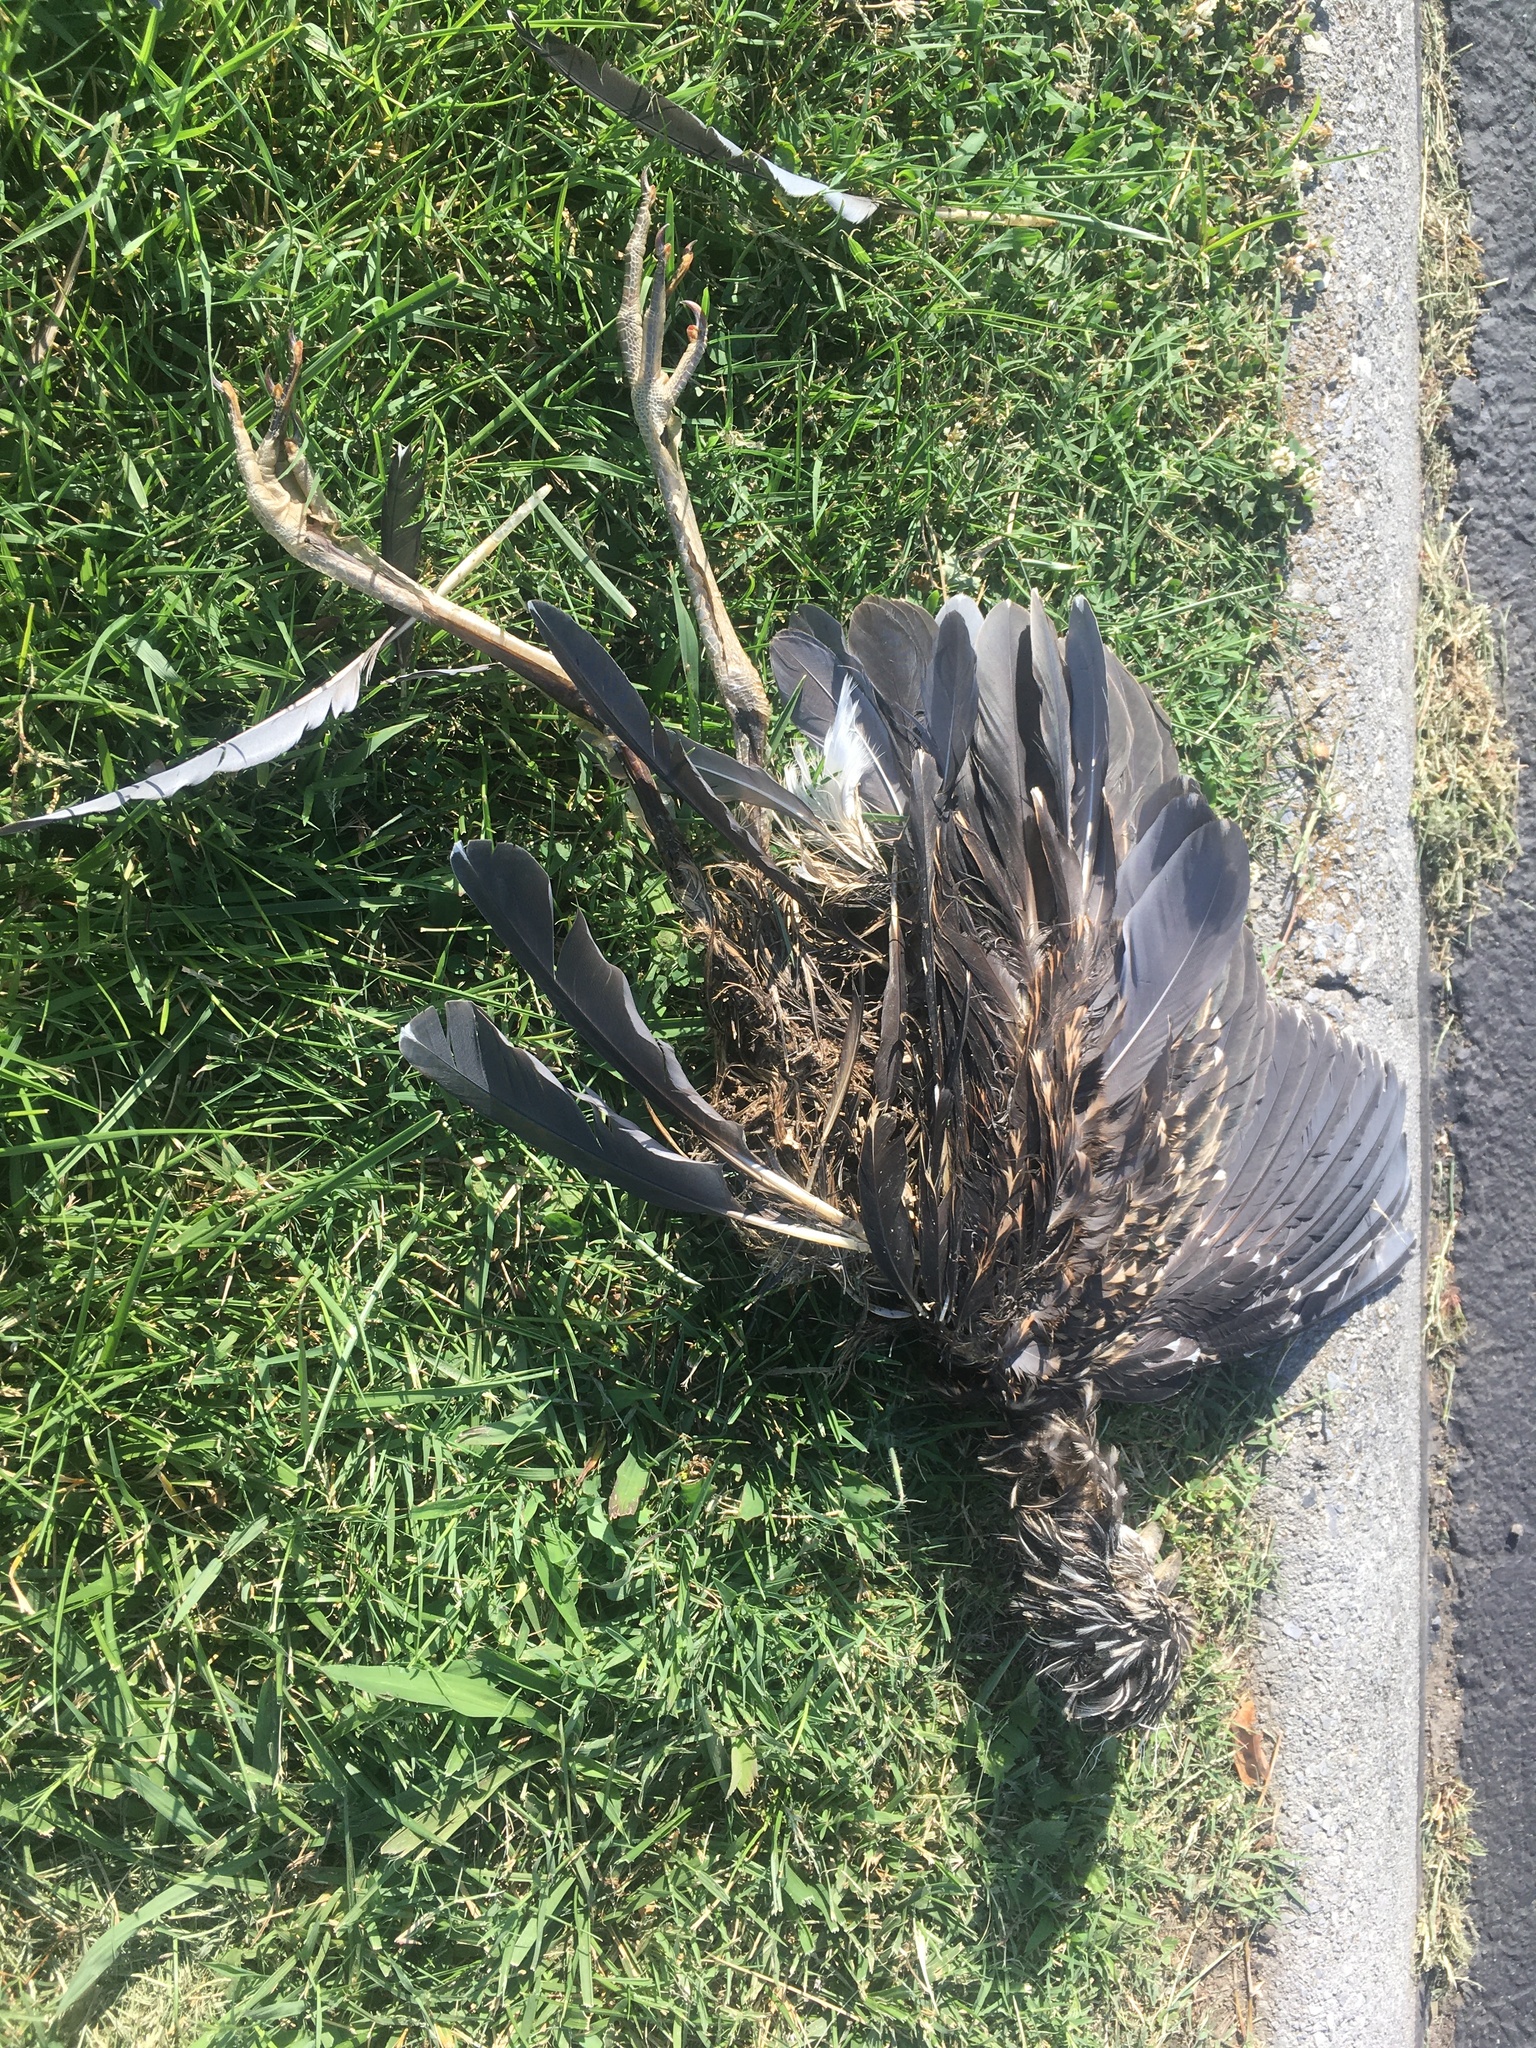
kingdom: Animalia
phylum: Chordata
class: Aves
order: Pelecaniformes
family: Ardeidae
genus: Nycticorax
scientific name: Nycticorax nycticorax
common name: Black-crowned night heron
